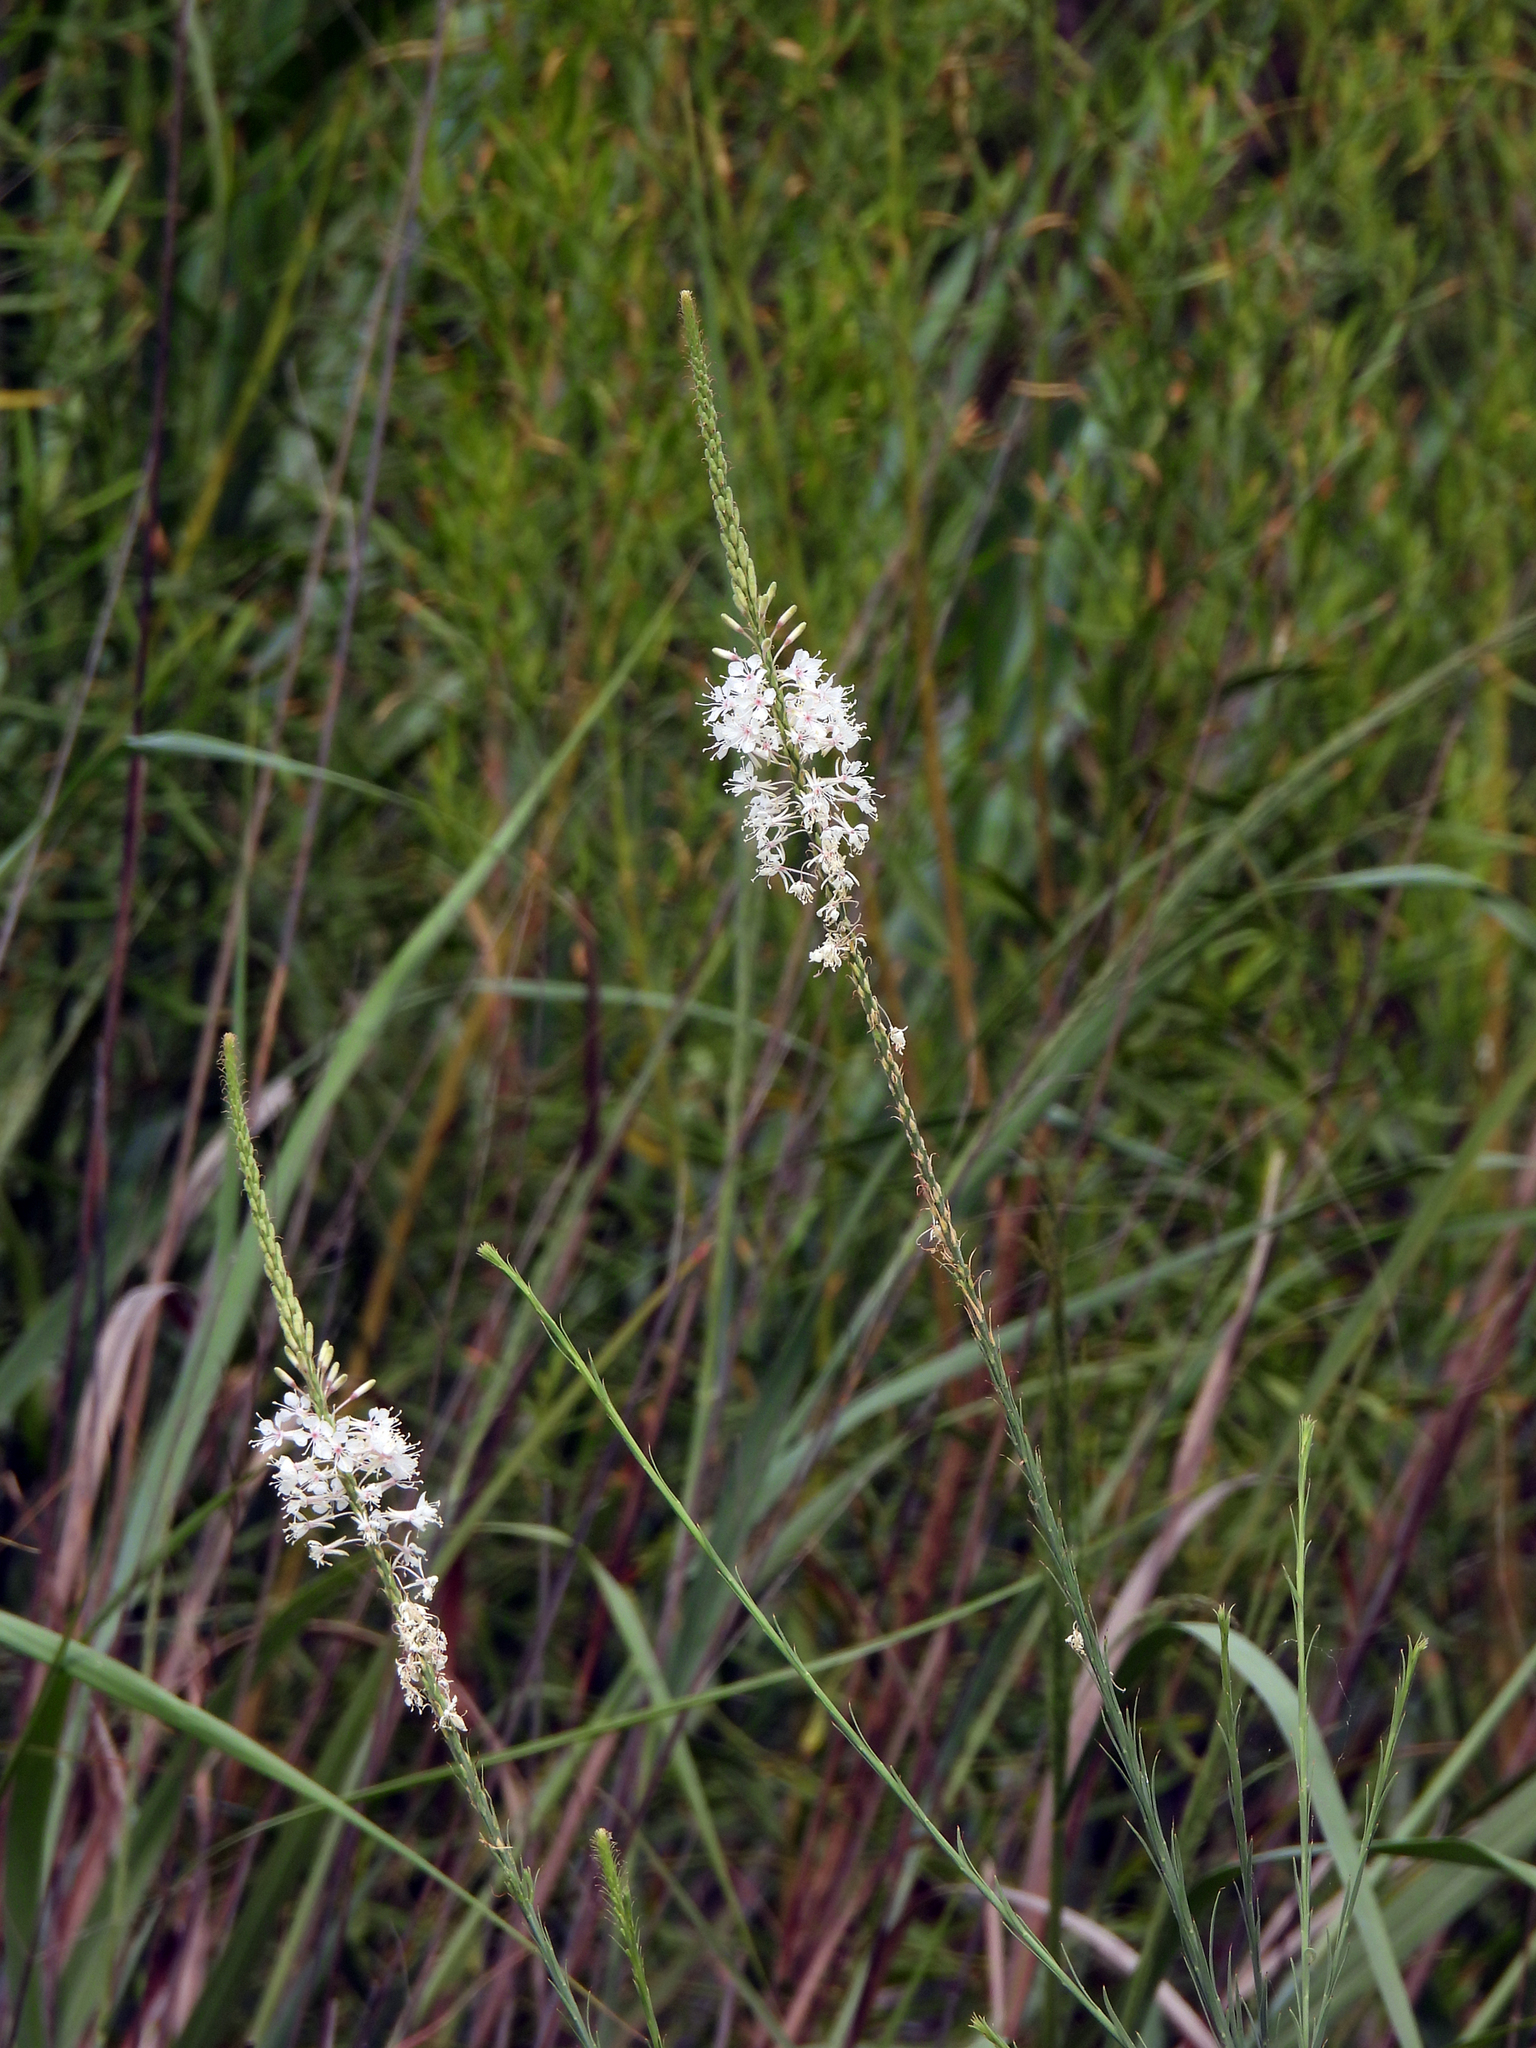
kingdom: Plantae
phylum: Tracheophyta
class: Magnoliopsida
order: Myrtales
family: Onagraceae
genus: Oenothera
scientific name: Oenothera glaucifolia
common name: False gaura
